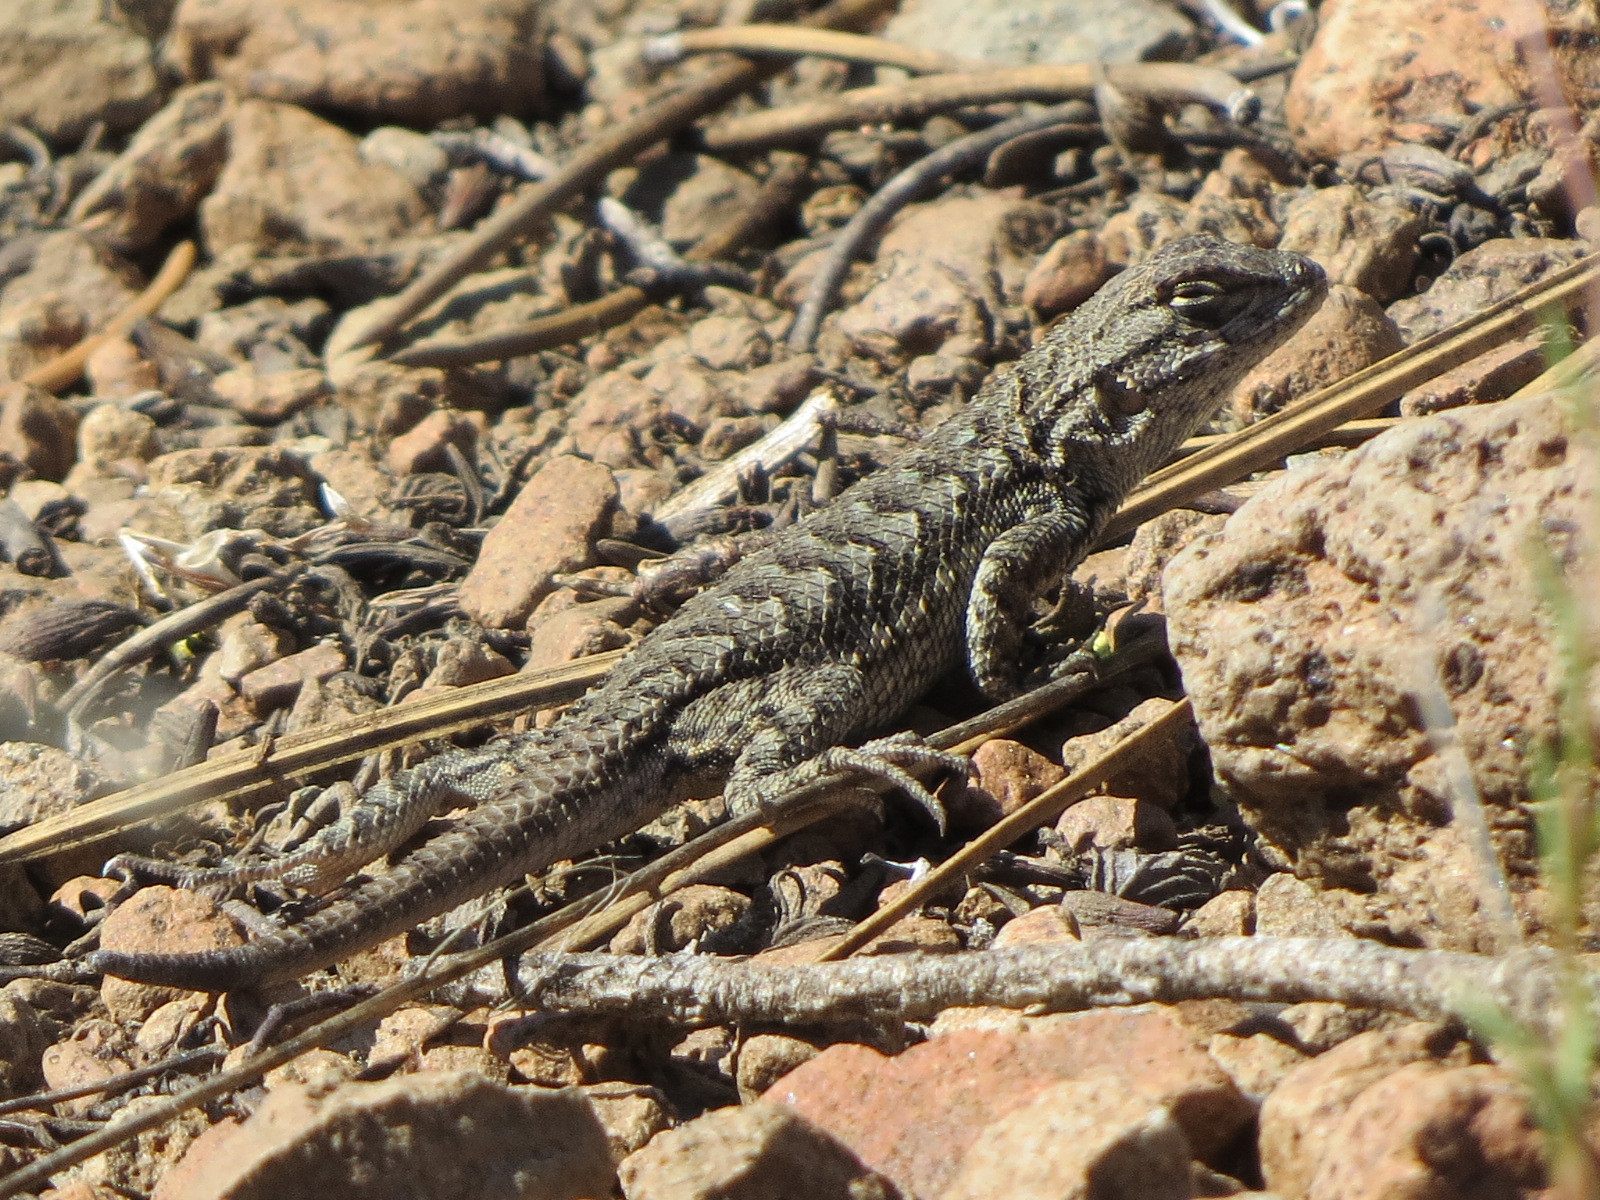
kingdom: Animalia
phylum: Chordata
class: Squamata
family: Phrynosomatidae
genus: Sceloporus
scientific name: Sceloporus occidentalis
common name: Western fence lizard
